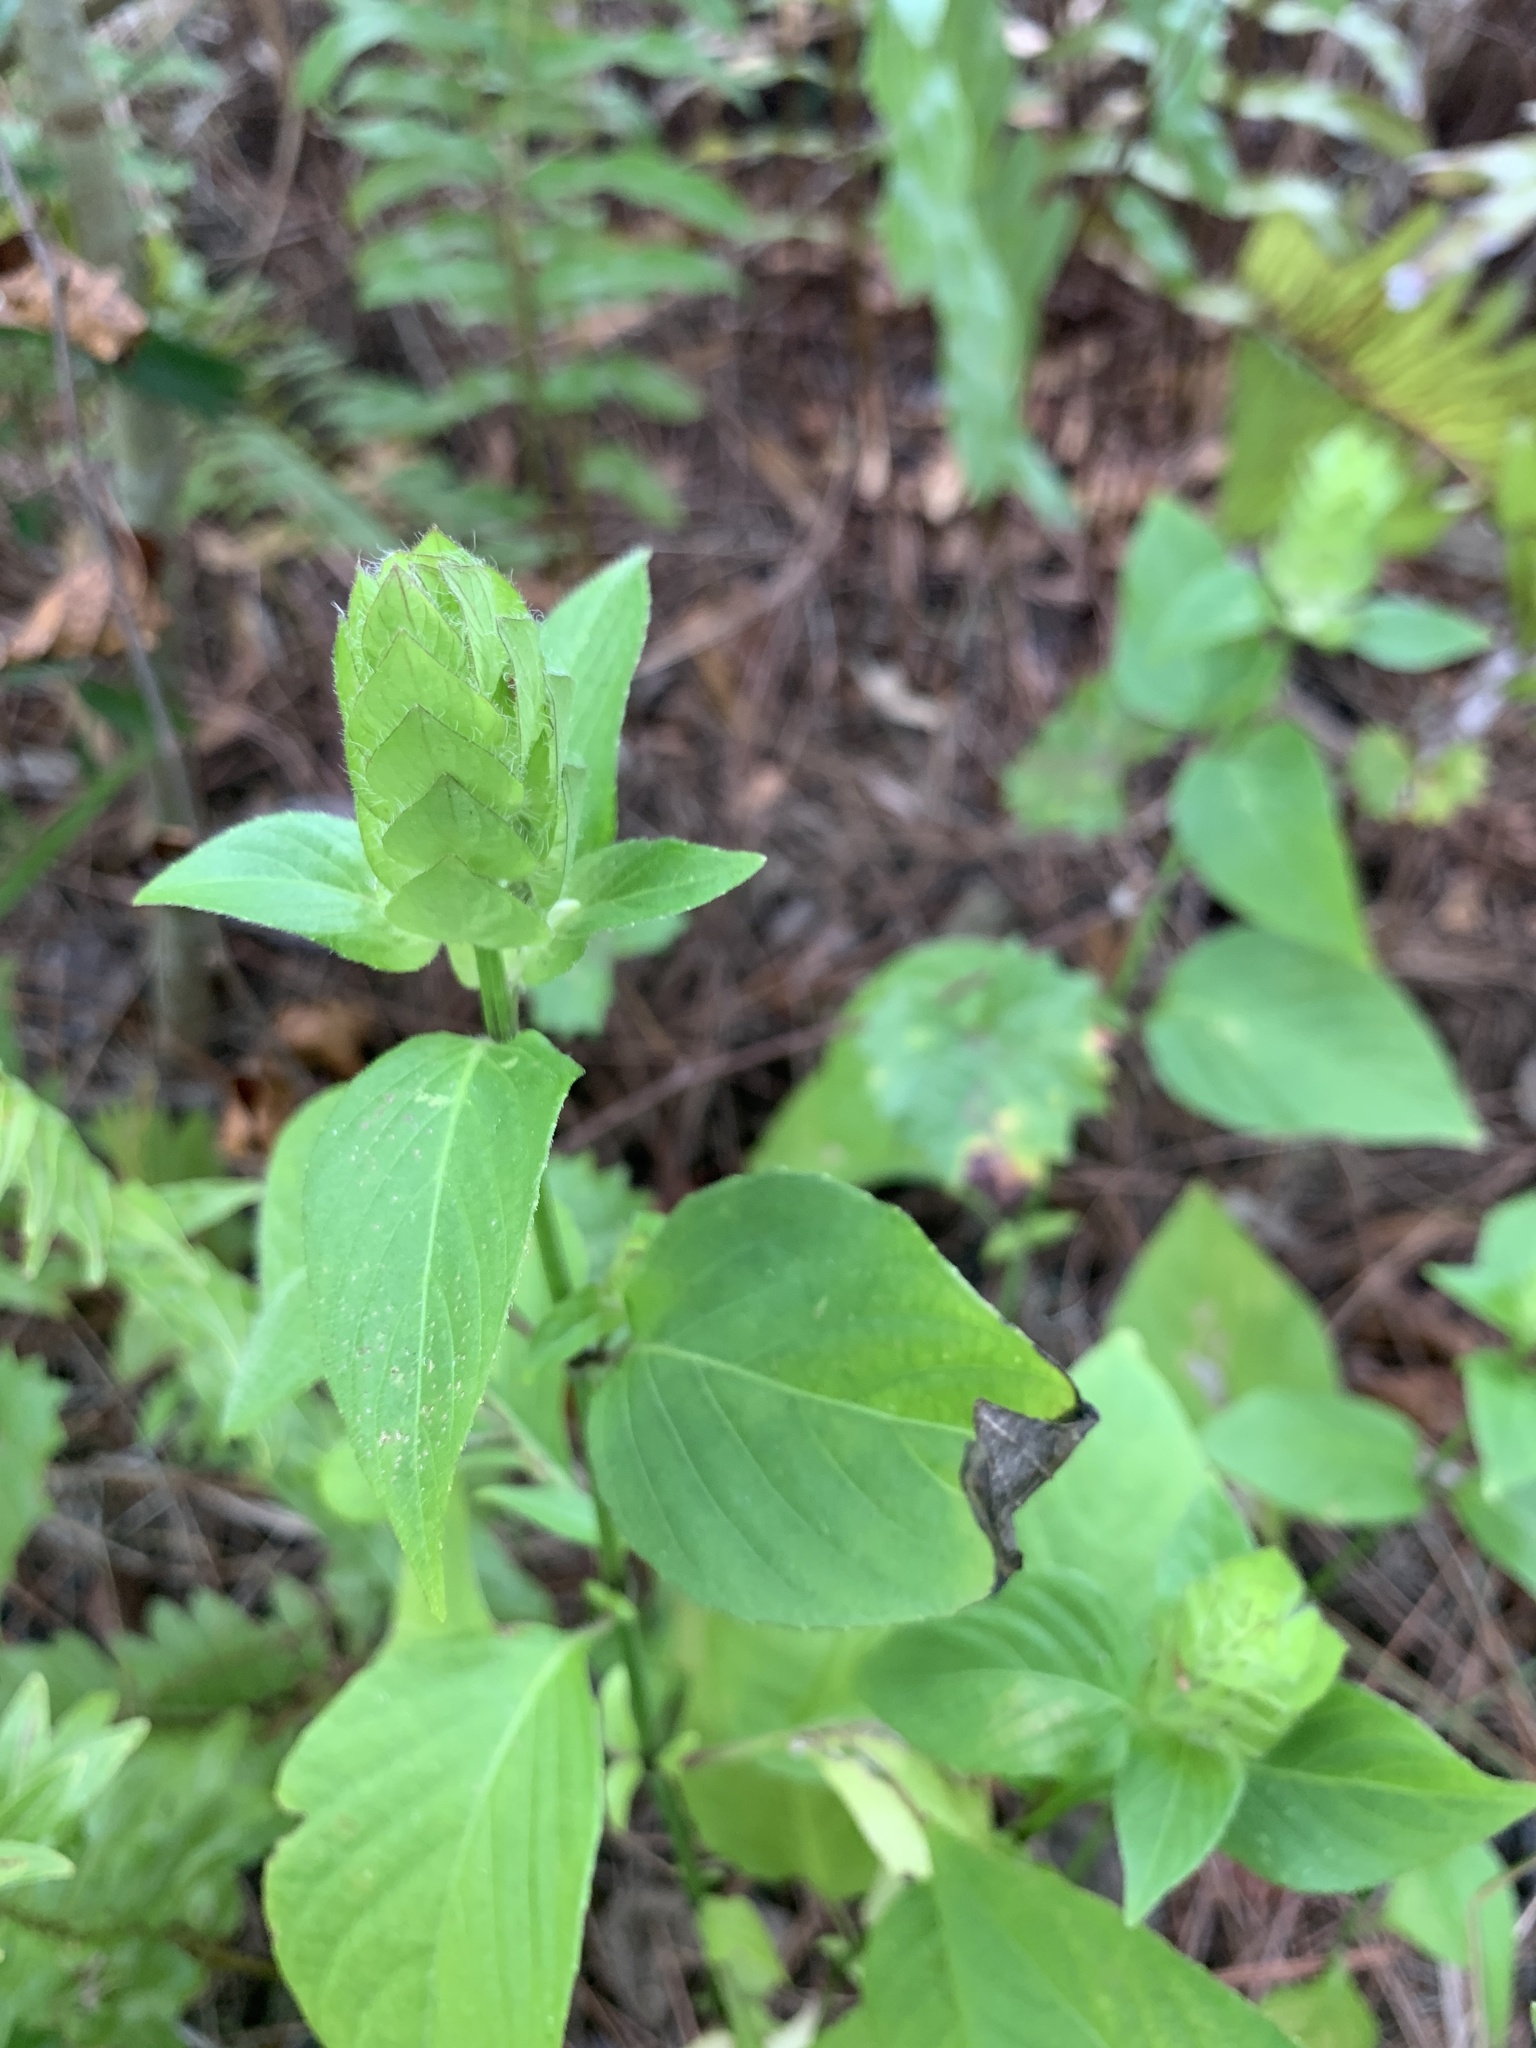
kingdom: Plantae
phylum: Tracheophyta
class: Magnoliopsida
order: Lamiales
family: Acanthaceae
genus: Ruellia
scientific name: Ruellia blechum
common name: Browne's blechum
